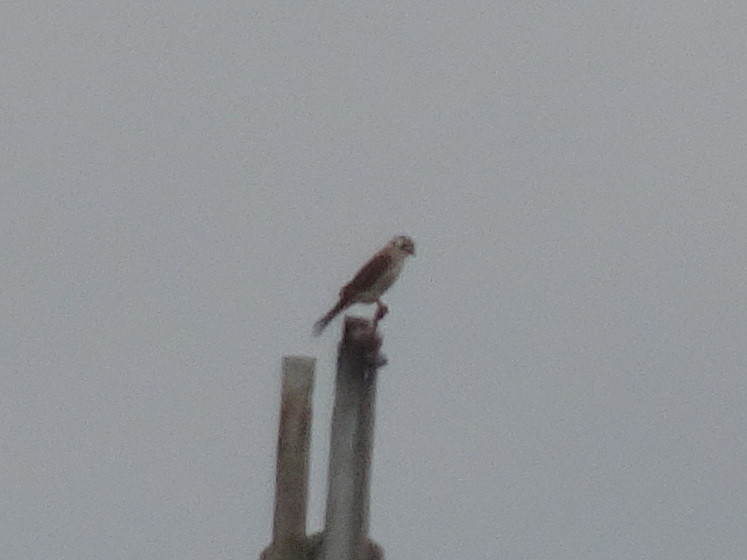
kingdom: Animalia
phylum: Chordata
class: Aves
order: Falconiformes
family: Falconidae
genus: Falco
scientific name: Falco sparverius
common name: American kestrel
